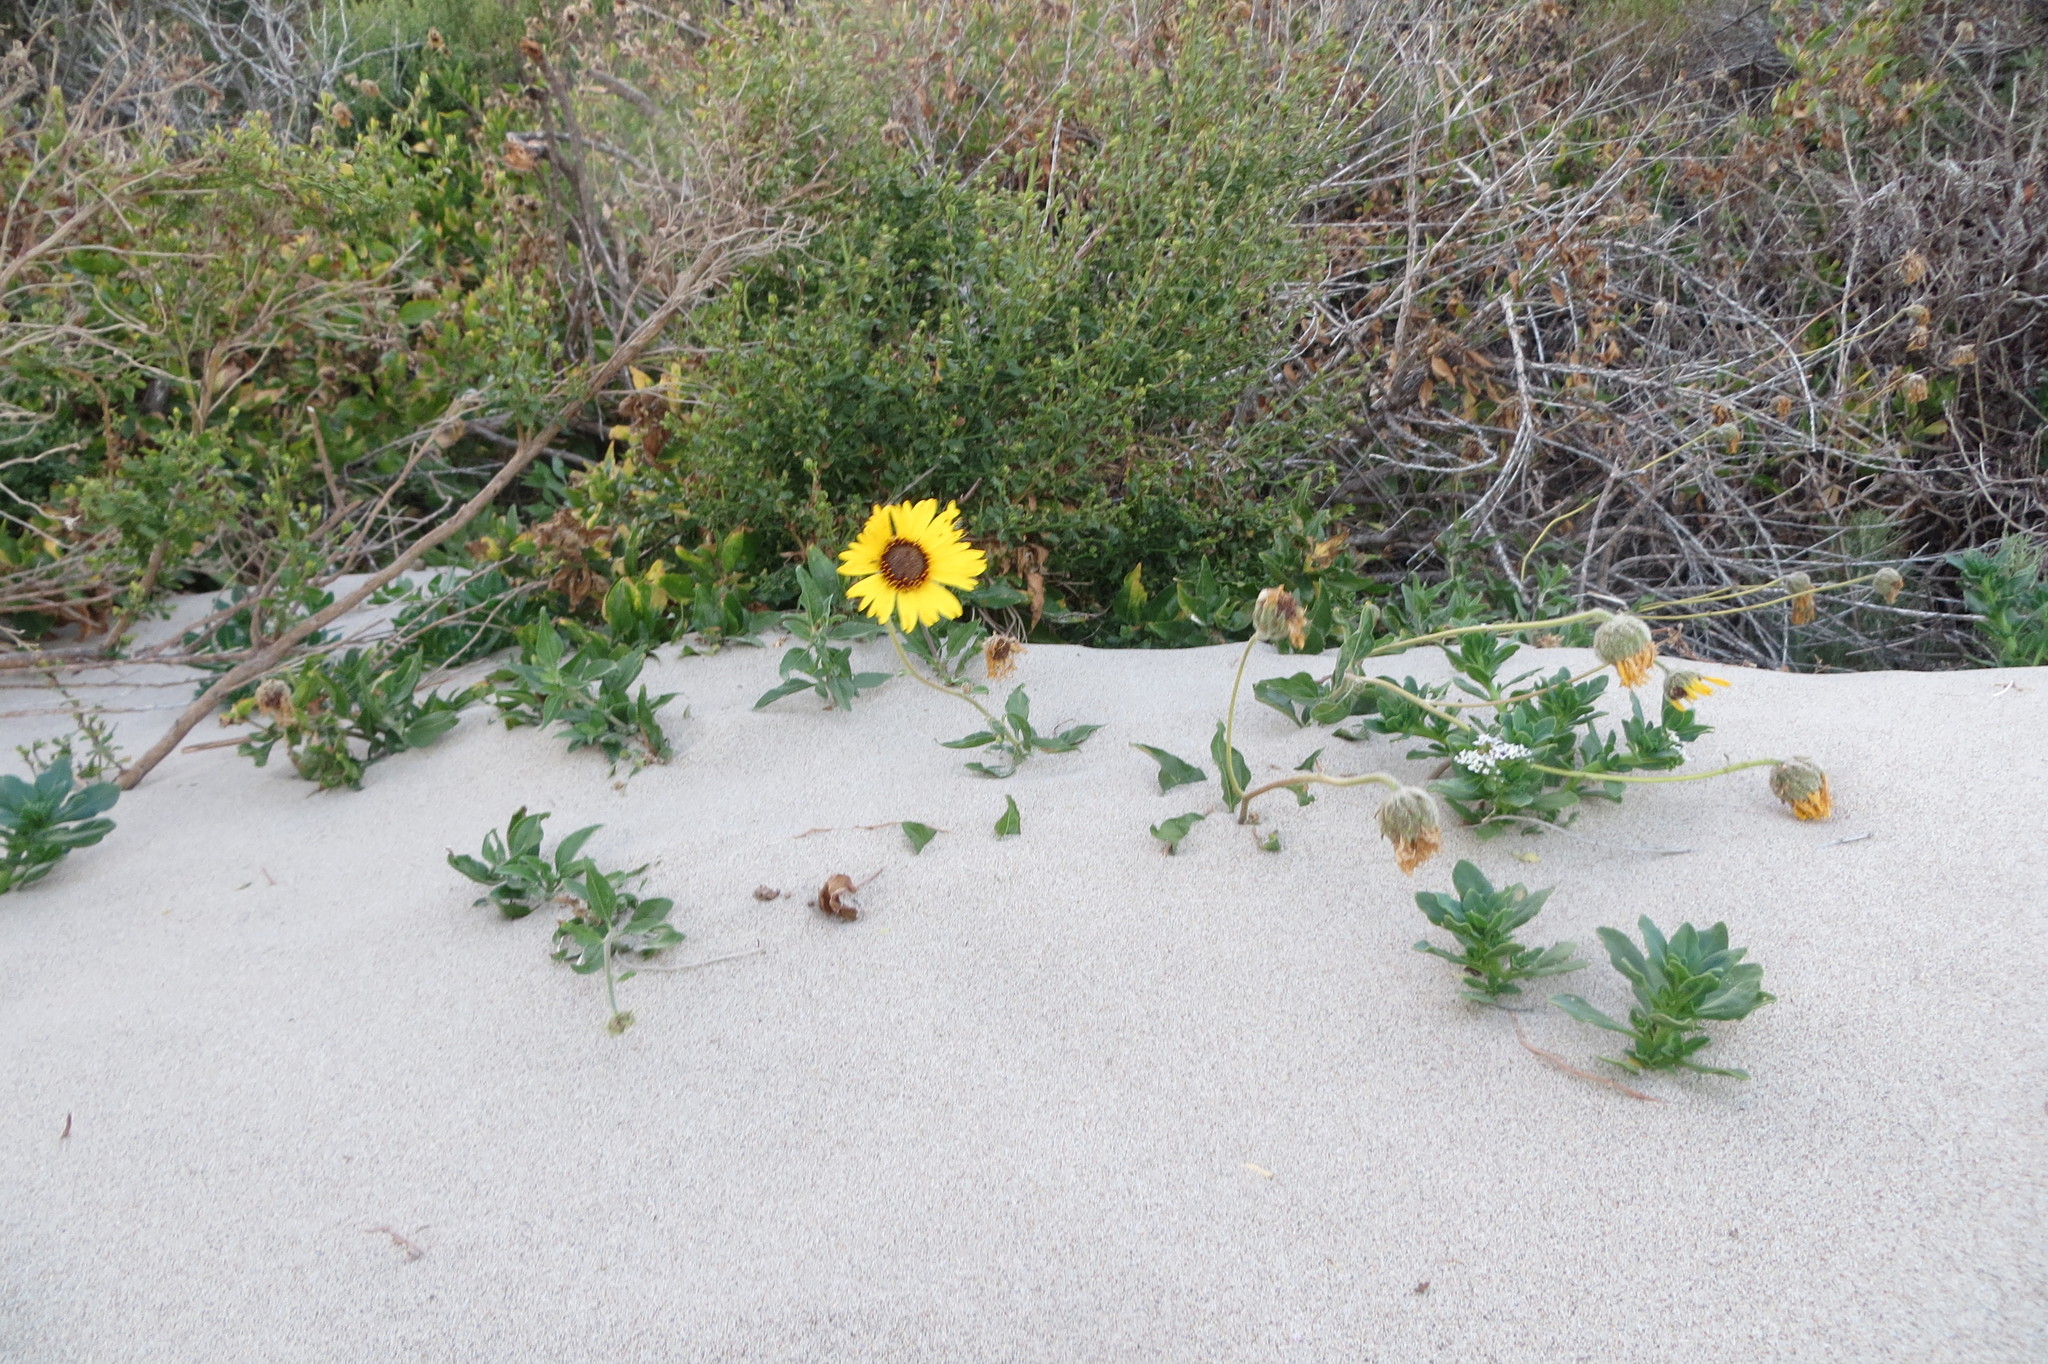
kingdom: Plantae
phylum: Tracheophyta
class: Magnoliopsida
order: Asterales
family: Asteraceae
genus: Encelia
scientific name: Encelia californica
